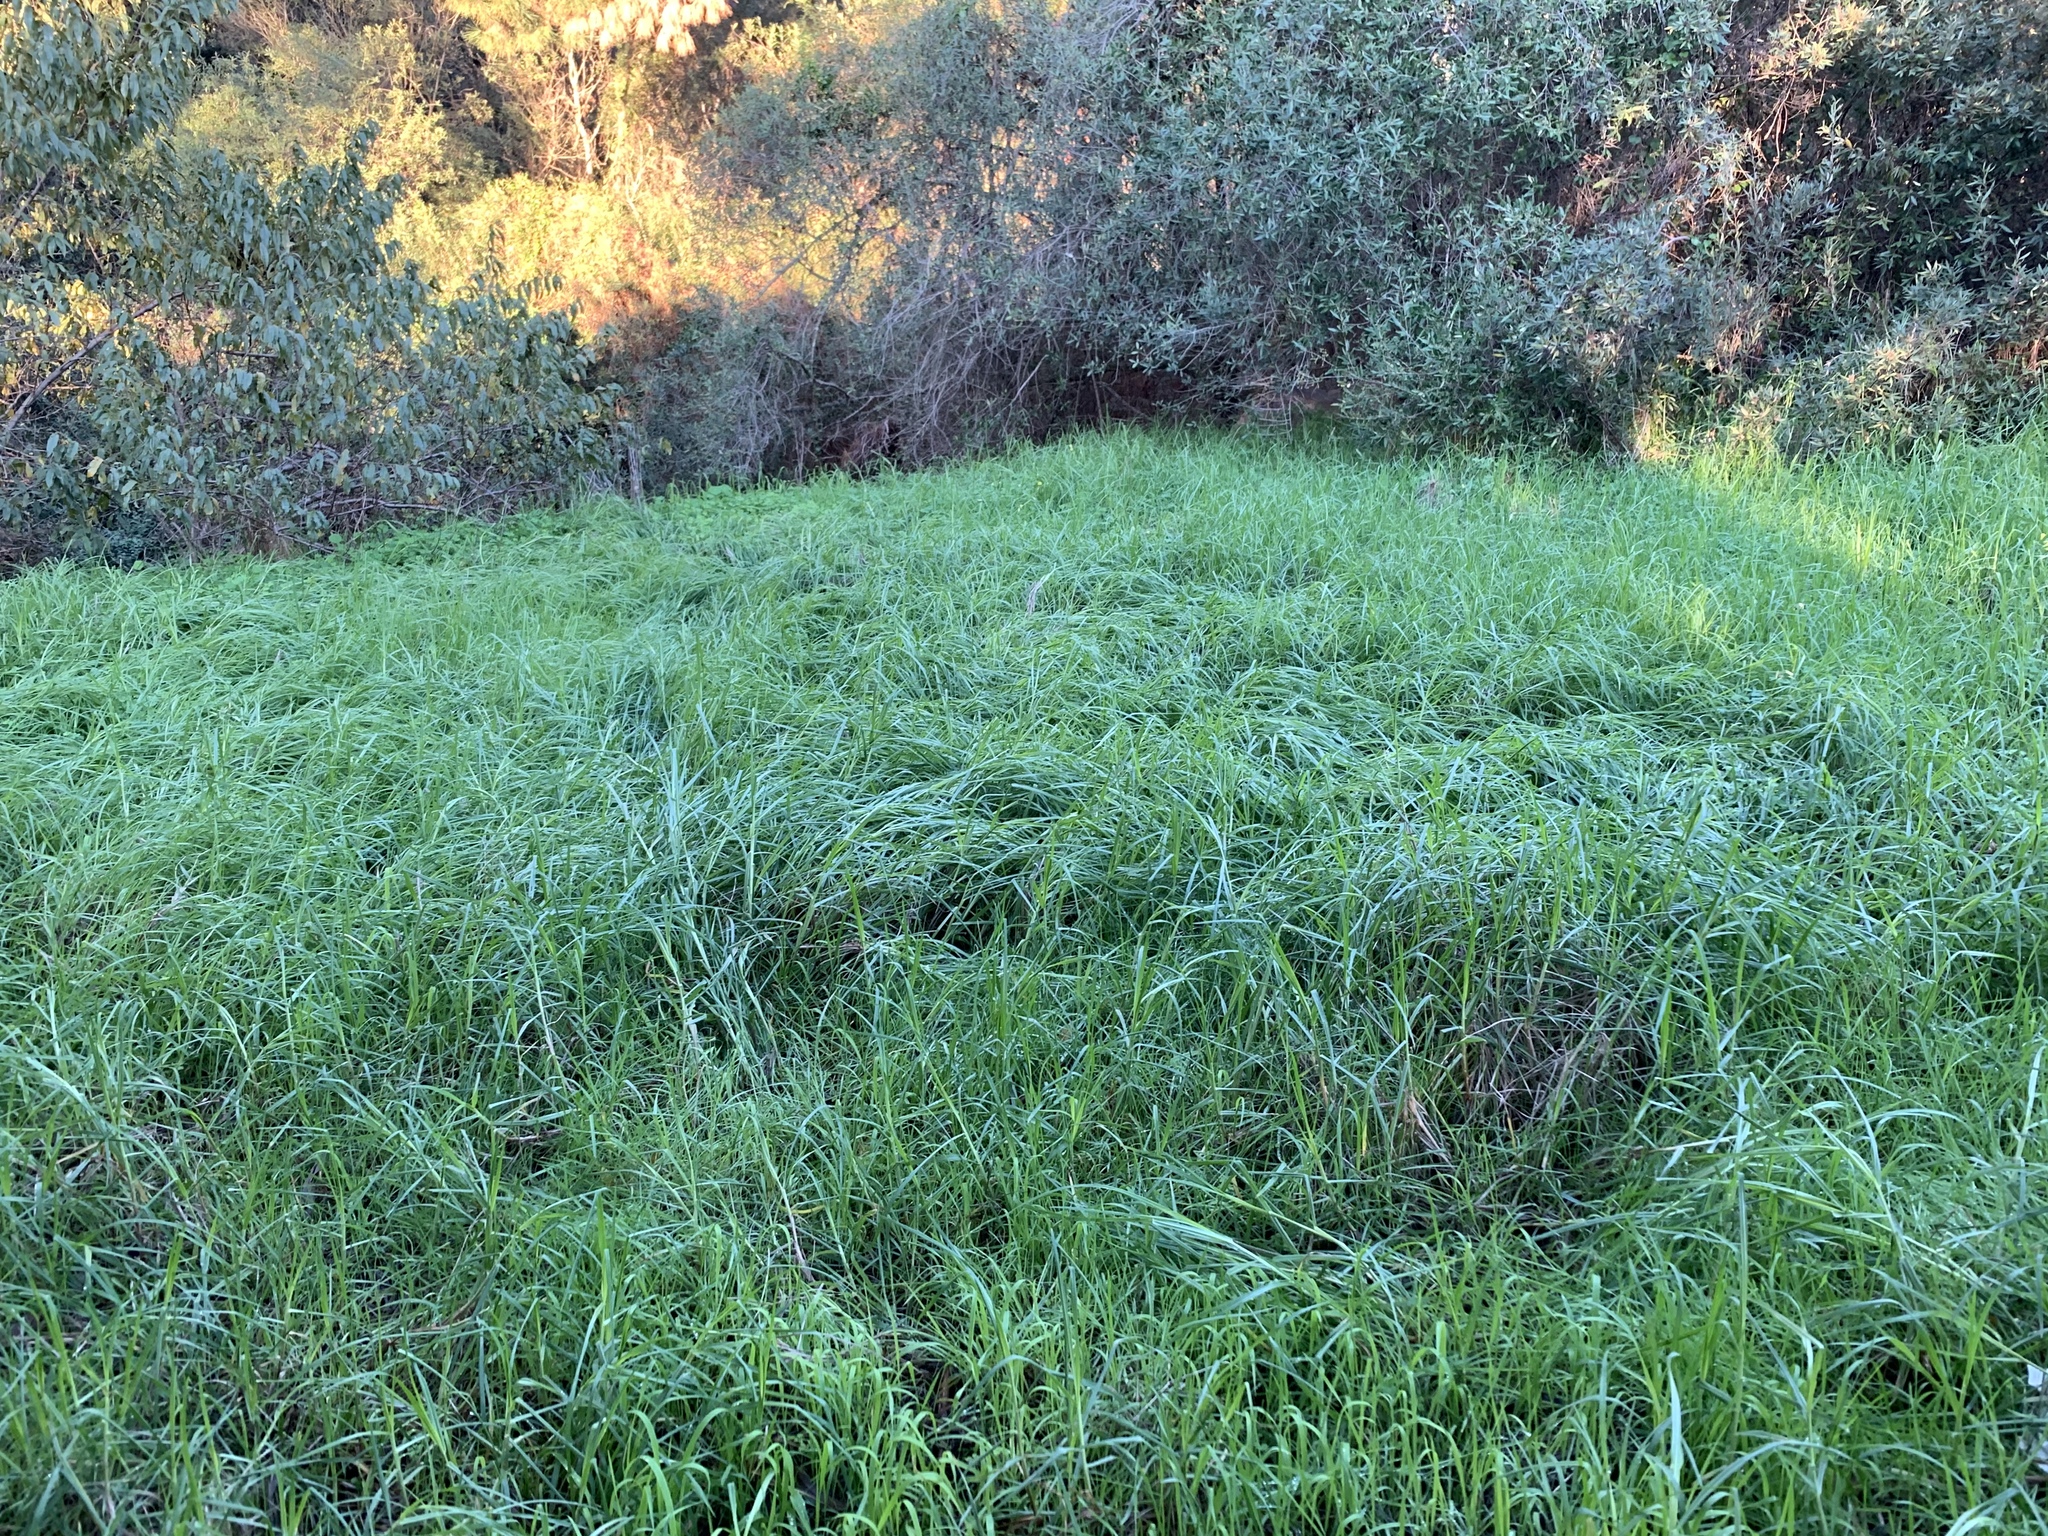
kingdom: Plantae
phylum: Tracheophyta
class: Liliopsida
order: Poales
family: Poaceae
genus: Cenchrus
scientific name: Cenchrus clandestinus
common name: Kikuyugrass
